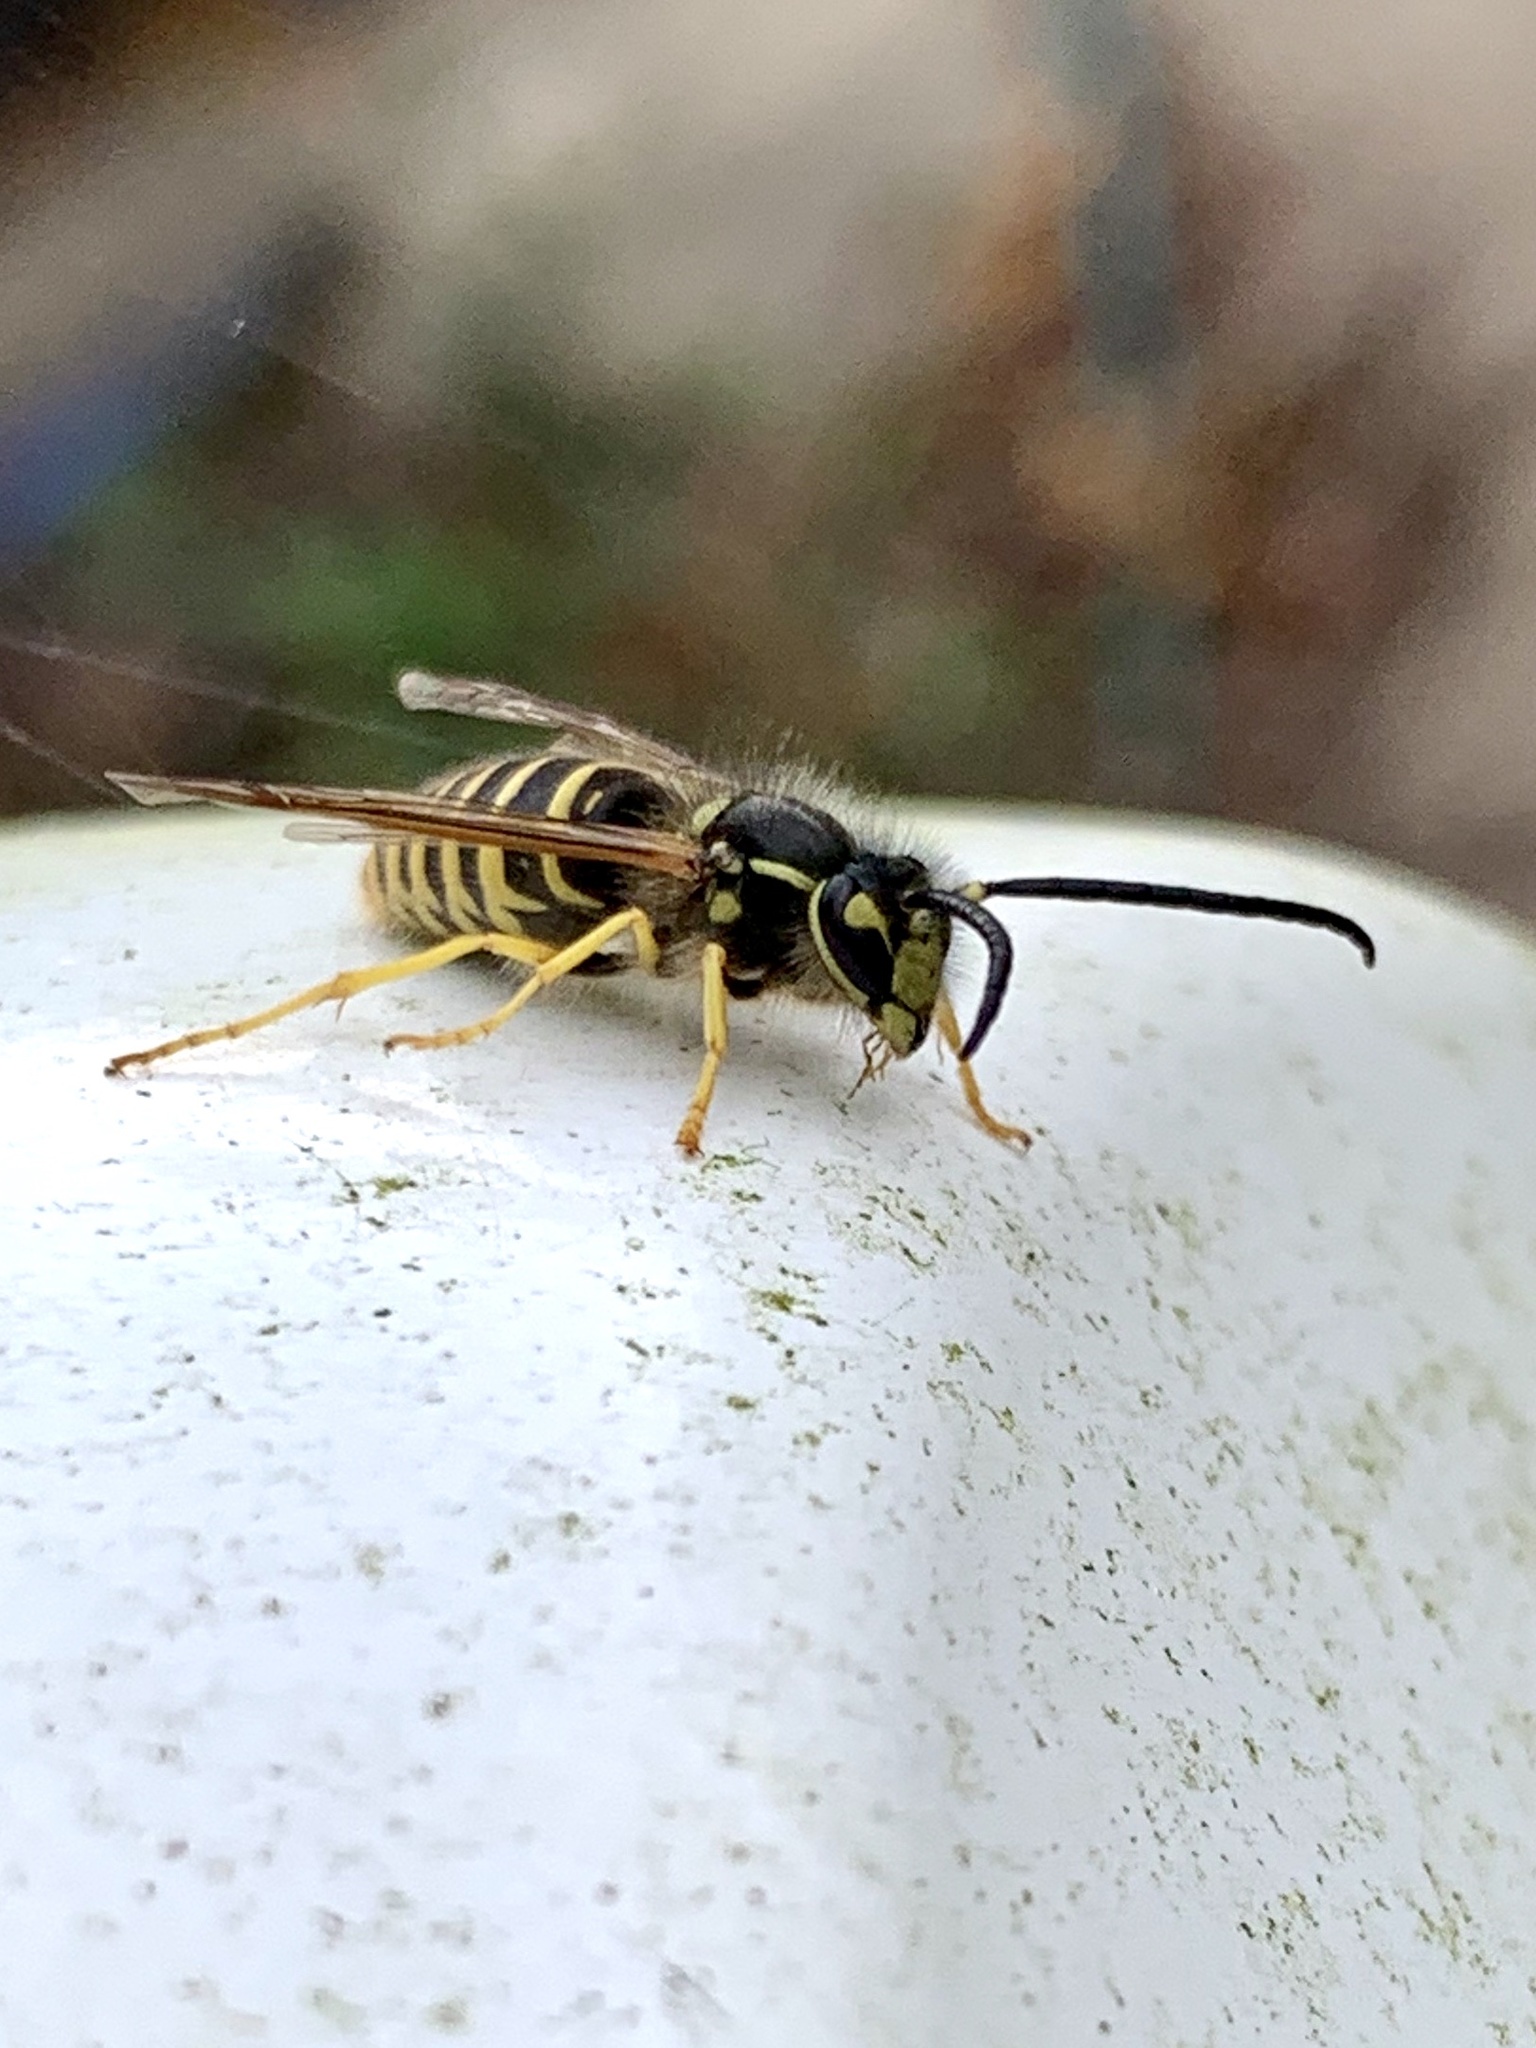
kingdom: Animalia
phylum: Arthropoda
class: Insecta
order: Hymenoptera
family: Vespidae
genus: Vespula
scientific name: Vespula maculifrons
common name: Eastern yellowjacket
